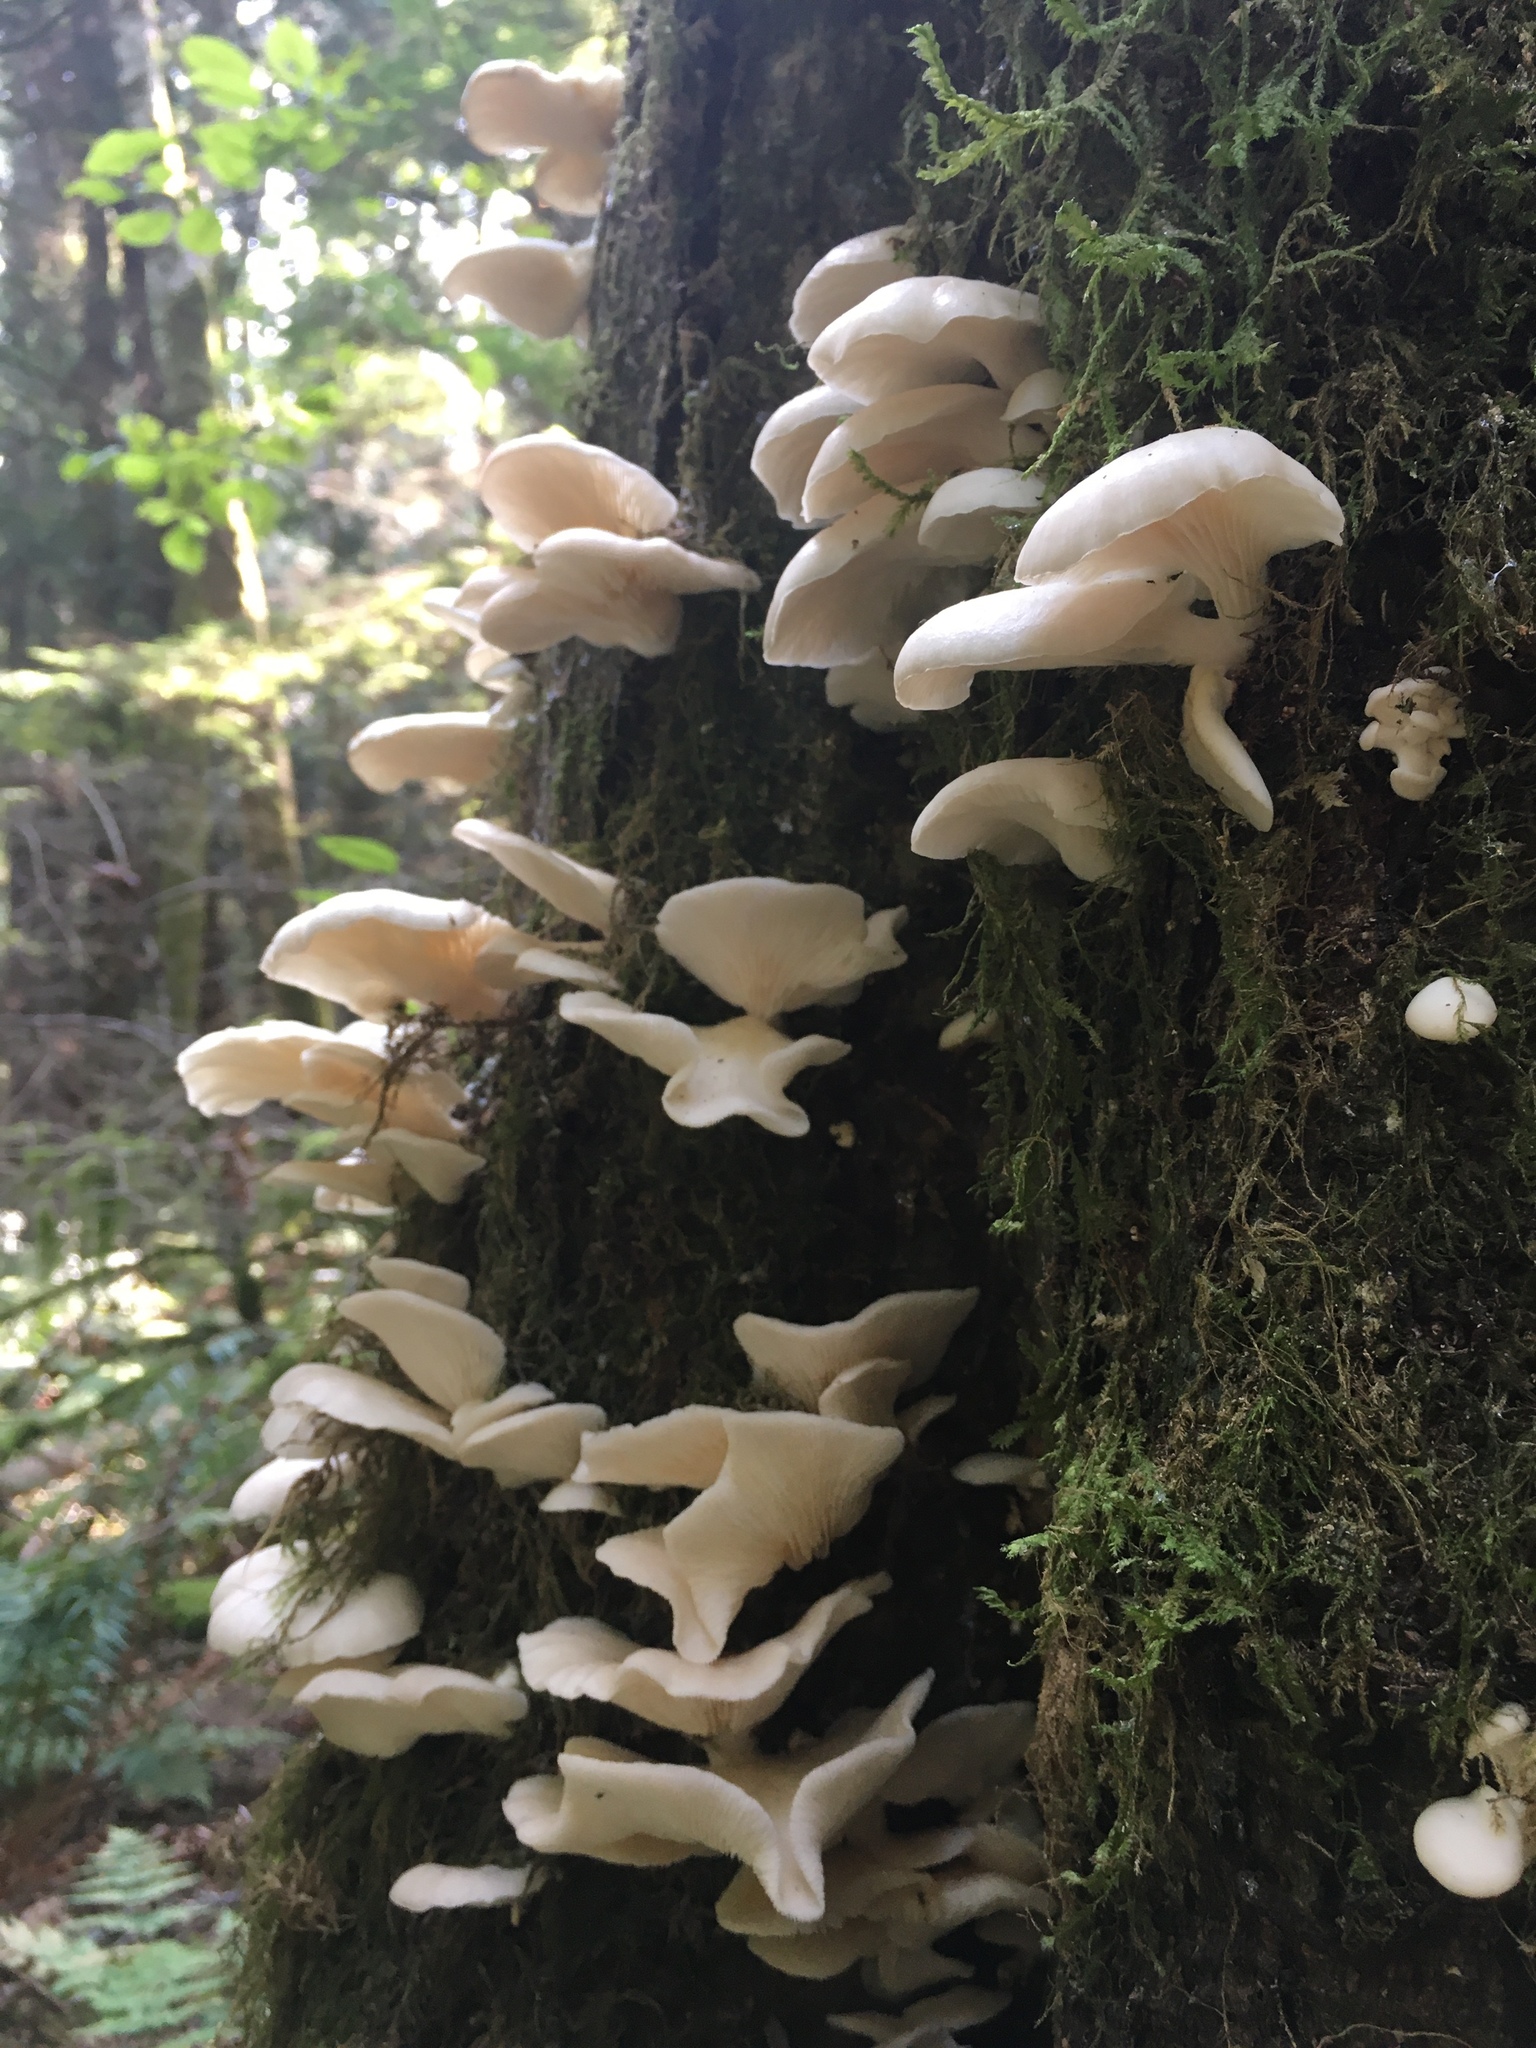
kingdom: Fungi
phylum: Basidiomycota
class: Agaricomycetes
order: Agaricales
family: Pleurotaceae
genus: Pleurotus
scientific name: Pleurotus pulmonarius
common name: Pale oyster
